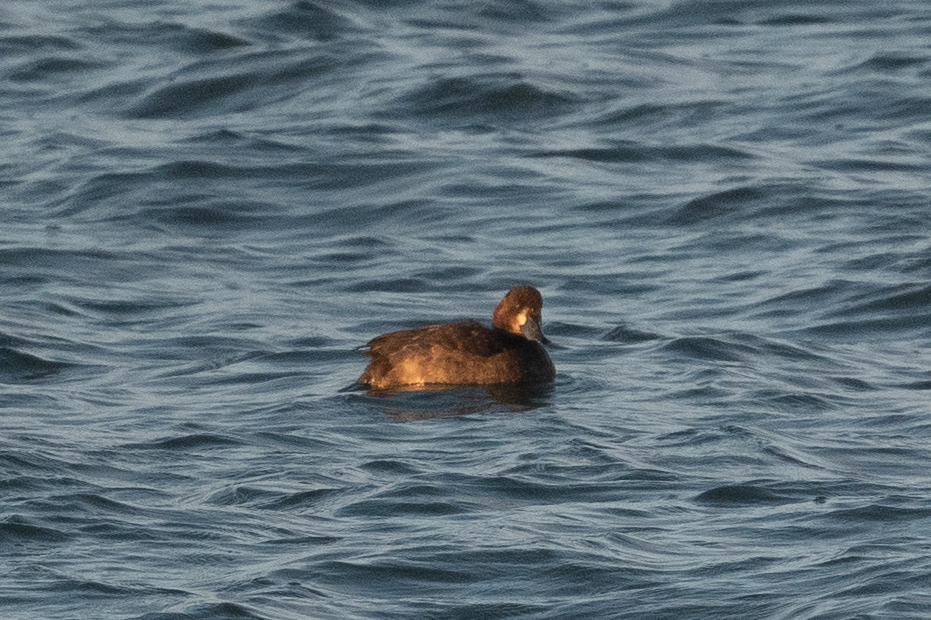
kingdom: Animalia
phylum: Chordata
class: Aves
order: Anseriformes
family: Anatidae
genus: Aythya
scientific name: Aythya marila
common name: Greater scaup
